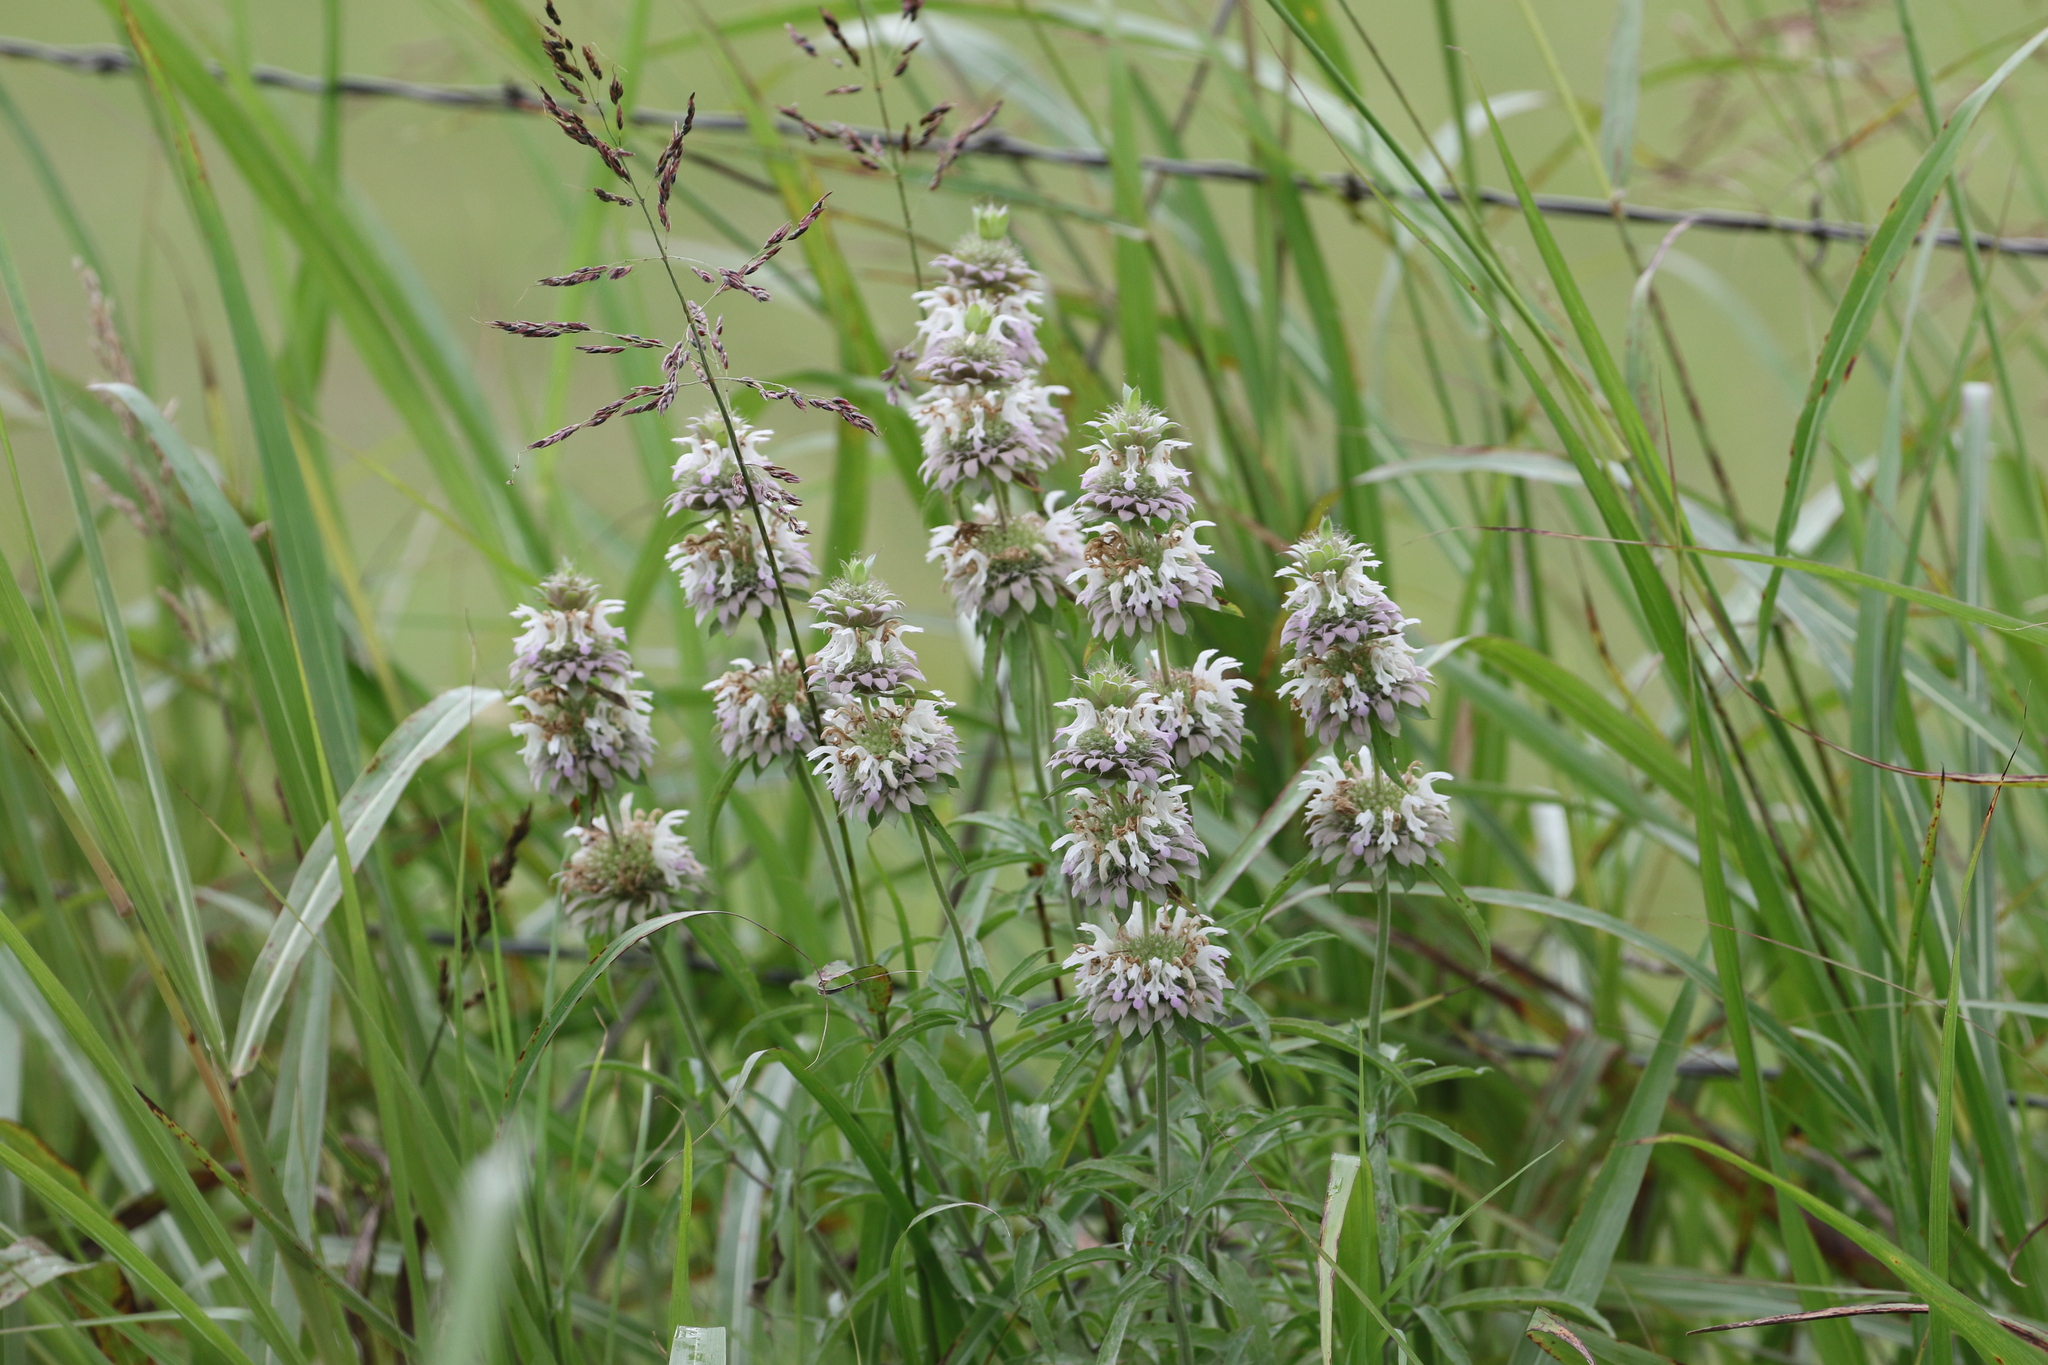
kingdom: Plantae
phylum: Tracheophyta
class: Magnoliopsida
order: Lamiales
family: Lamiaceae
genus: Monarda
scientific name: Monarda citriodora
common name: Lemon beebalm
